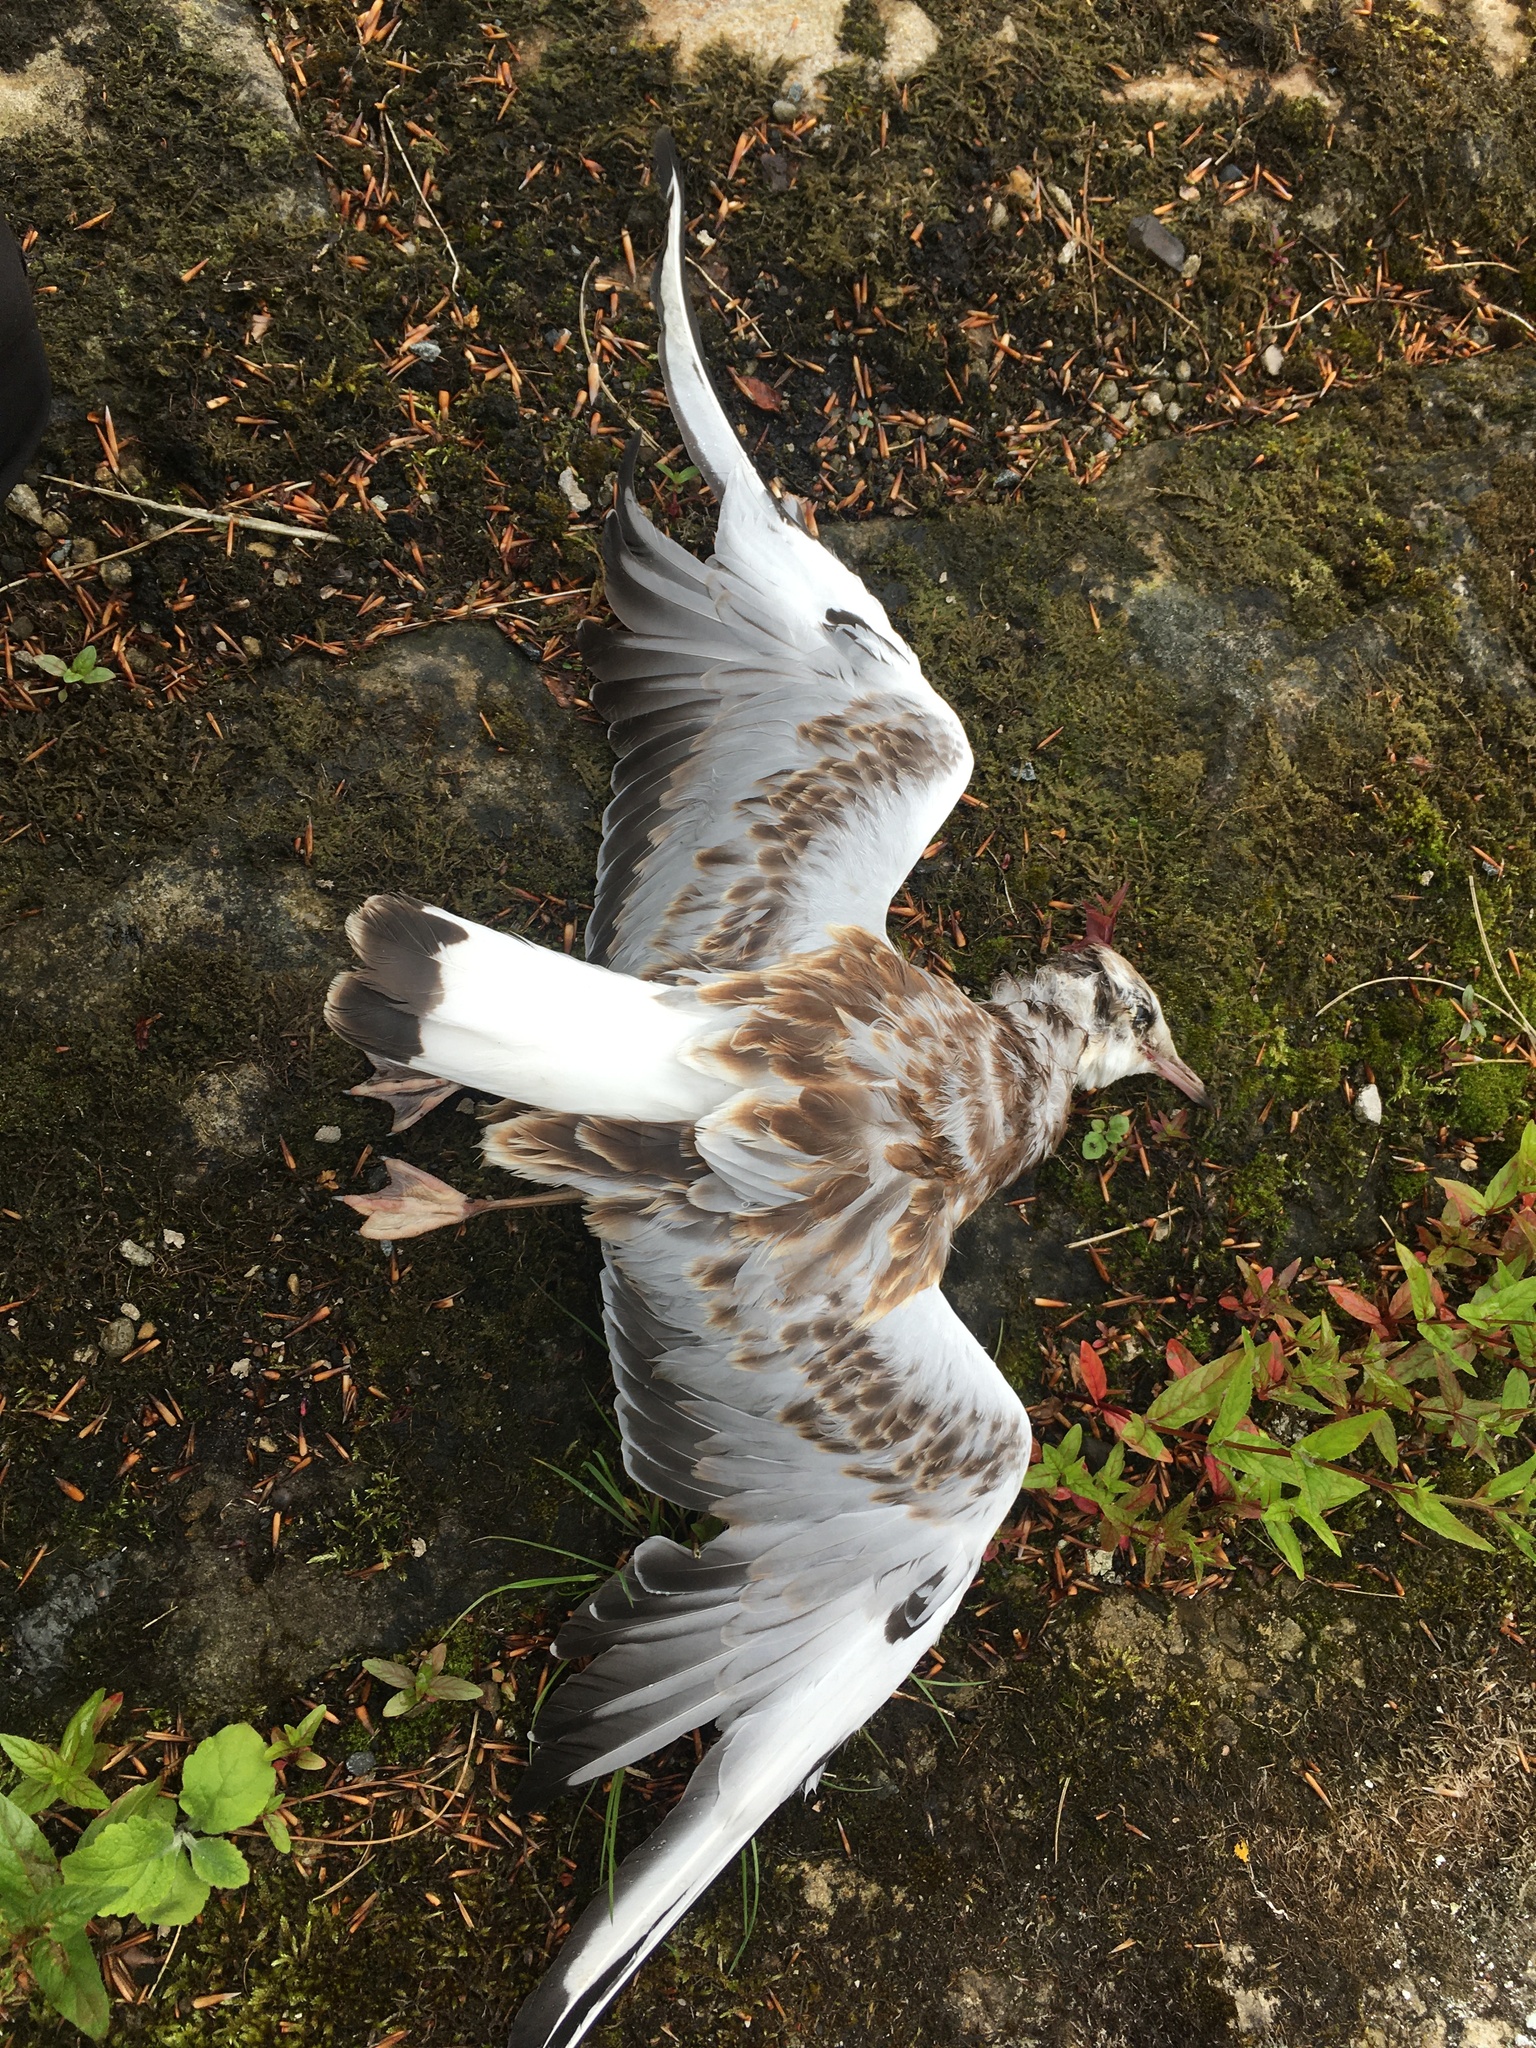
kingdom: Animalia
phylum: Chordata
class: Aves
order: Charadriiformes
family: Laridae
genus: Chroicocephalus
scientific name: Chroicocephalus ridibundus
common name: Black-headed gull
